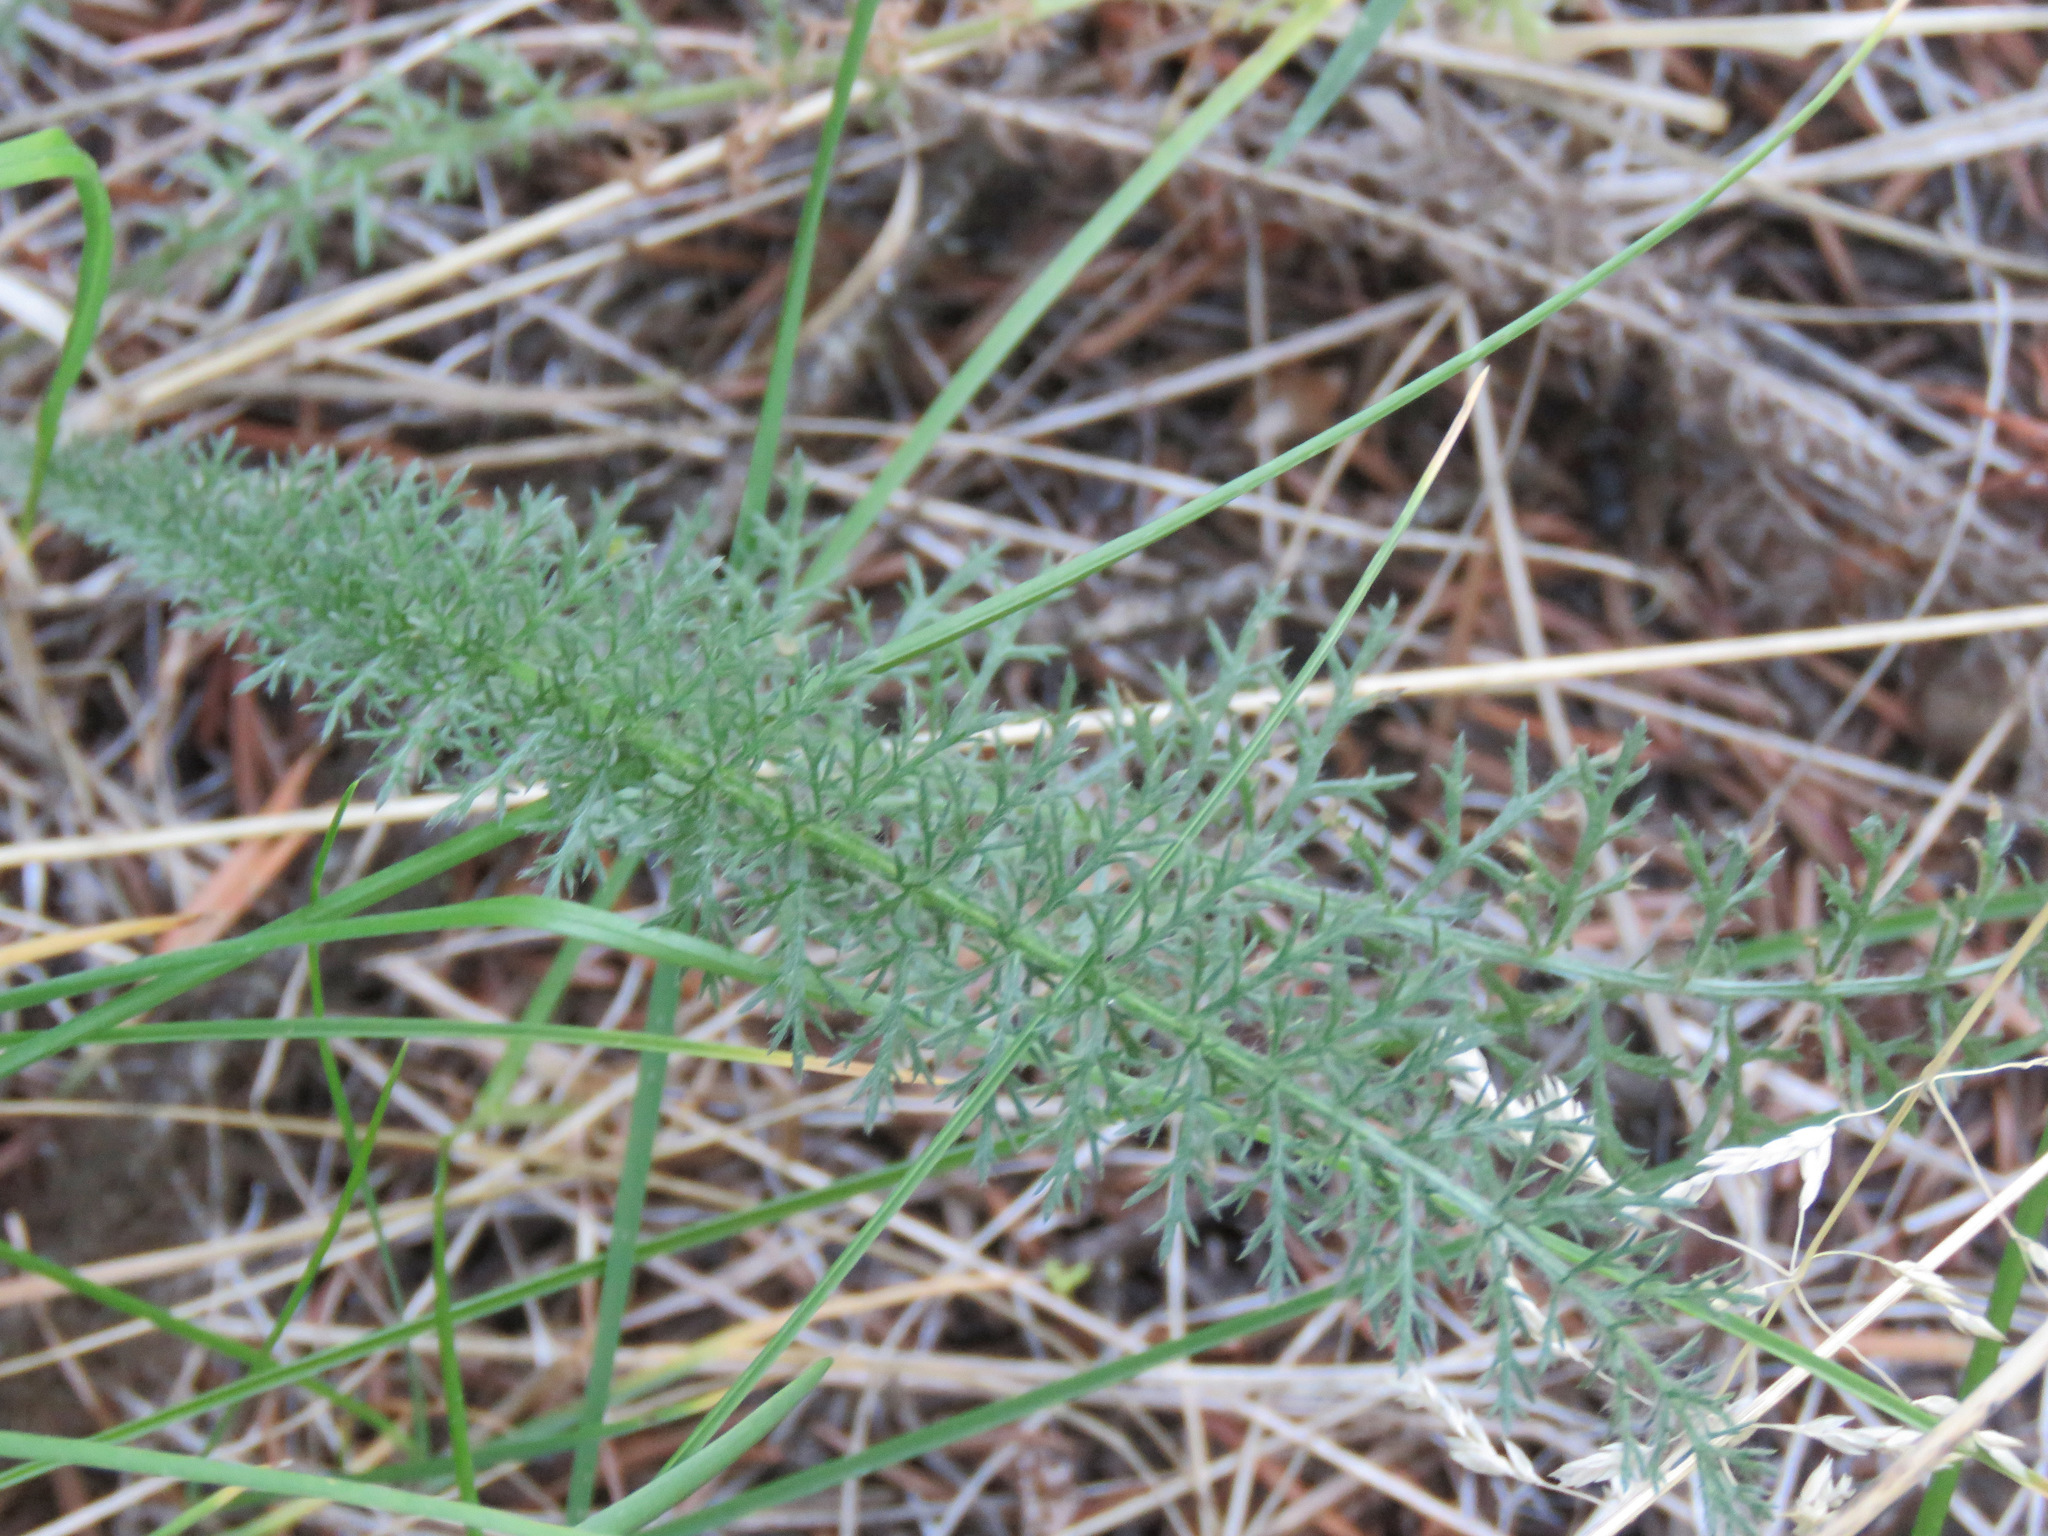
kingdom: Plantae
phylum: Tracheophyta
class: Magnoliopsida
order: Asterales
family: Asteraceae
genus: Achillea
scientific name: Achillea millefolium
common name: Yarrow
